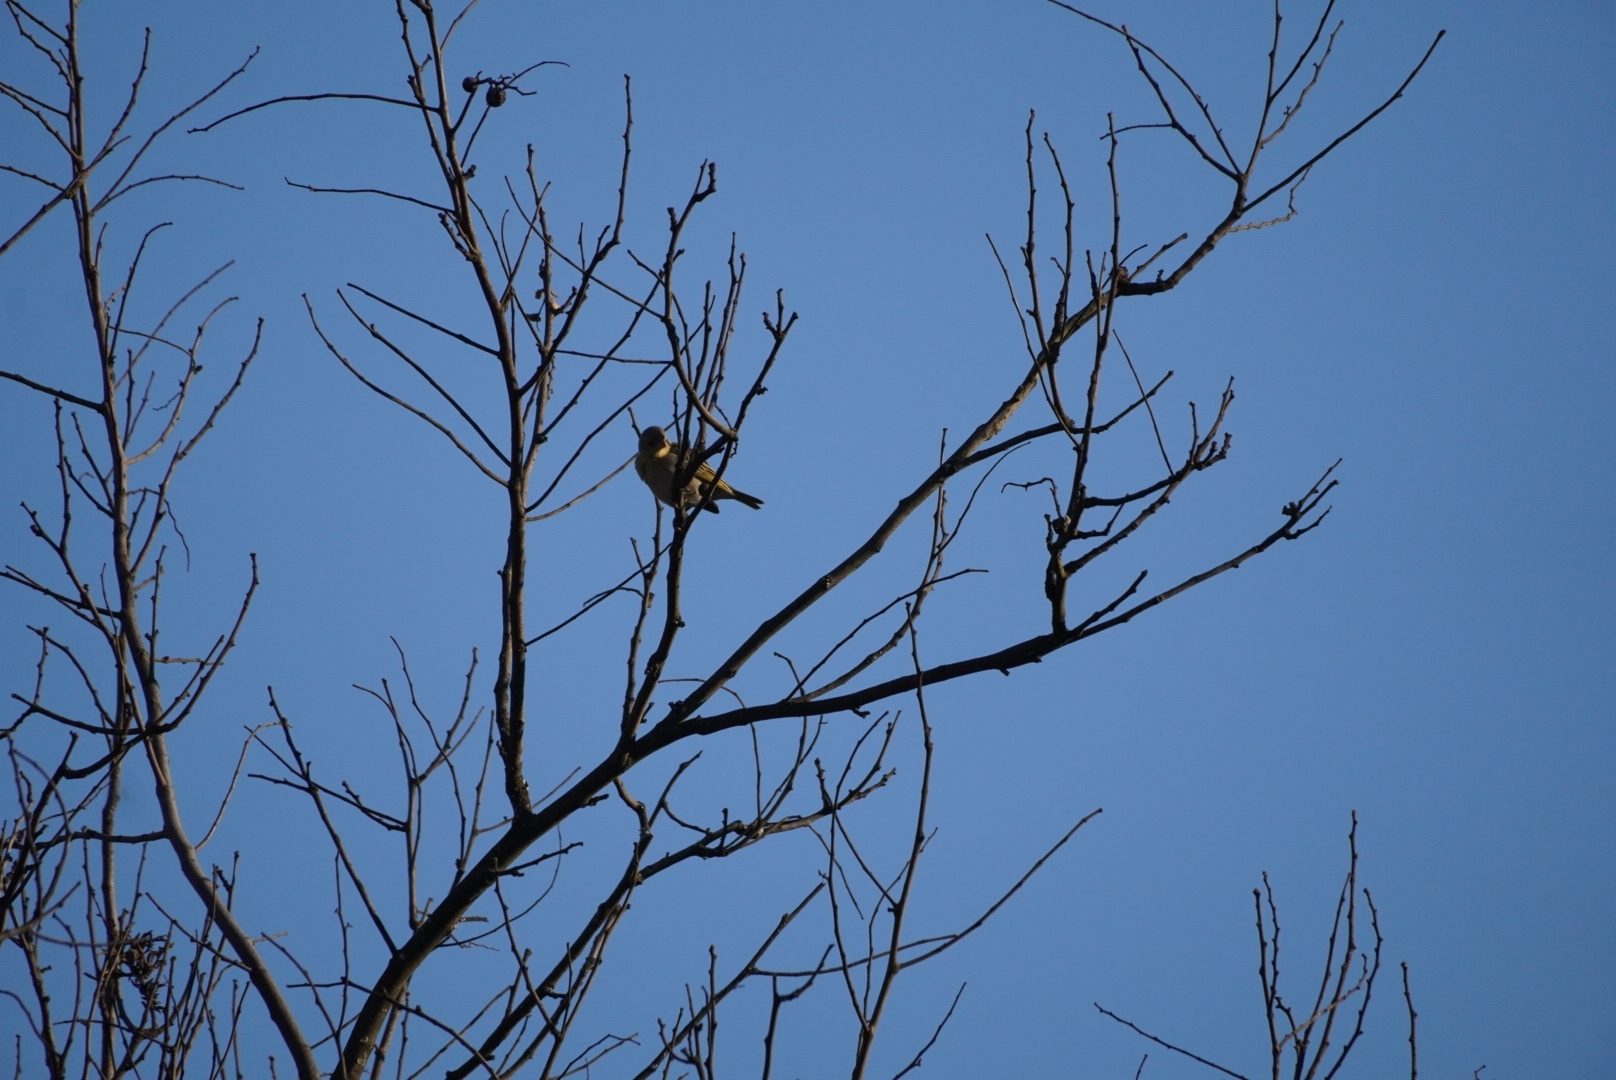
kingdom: Animalia
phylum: Chordata
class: Aves
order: Passeriformes
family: Ploceidae
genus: Ploceus
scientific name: Ploceus velatus
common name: Southern masked weaver
